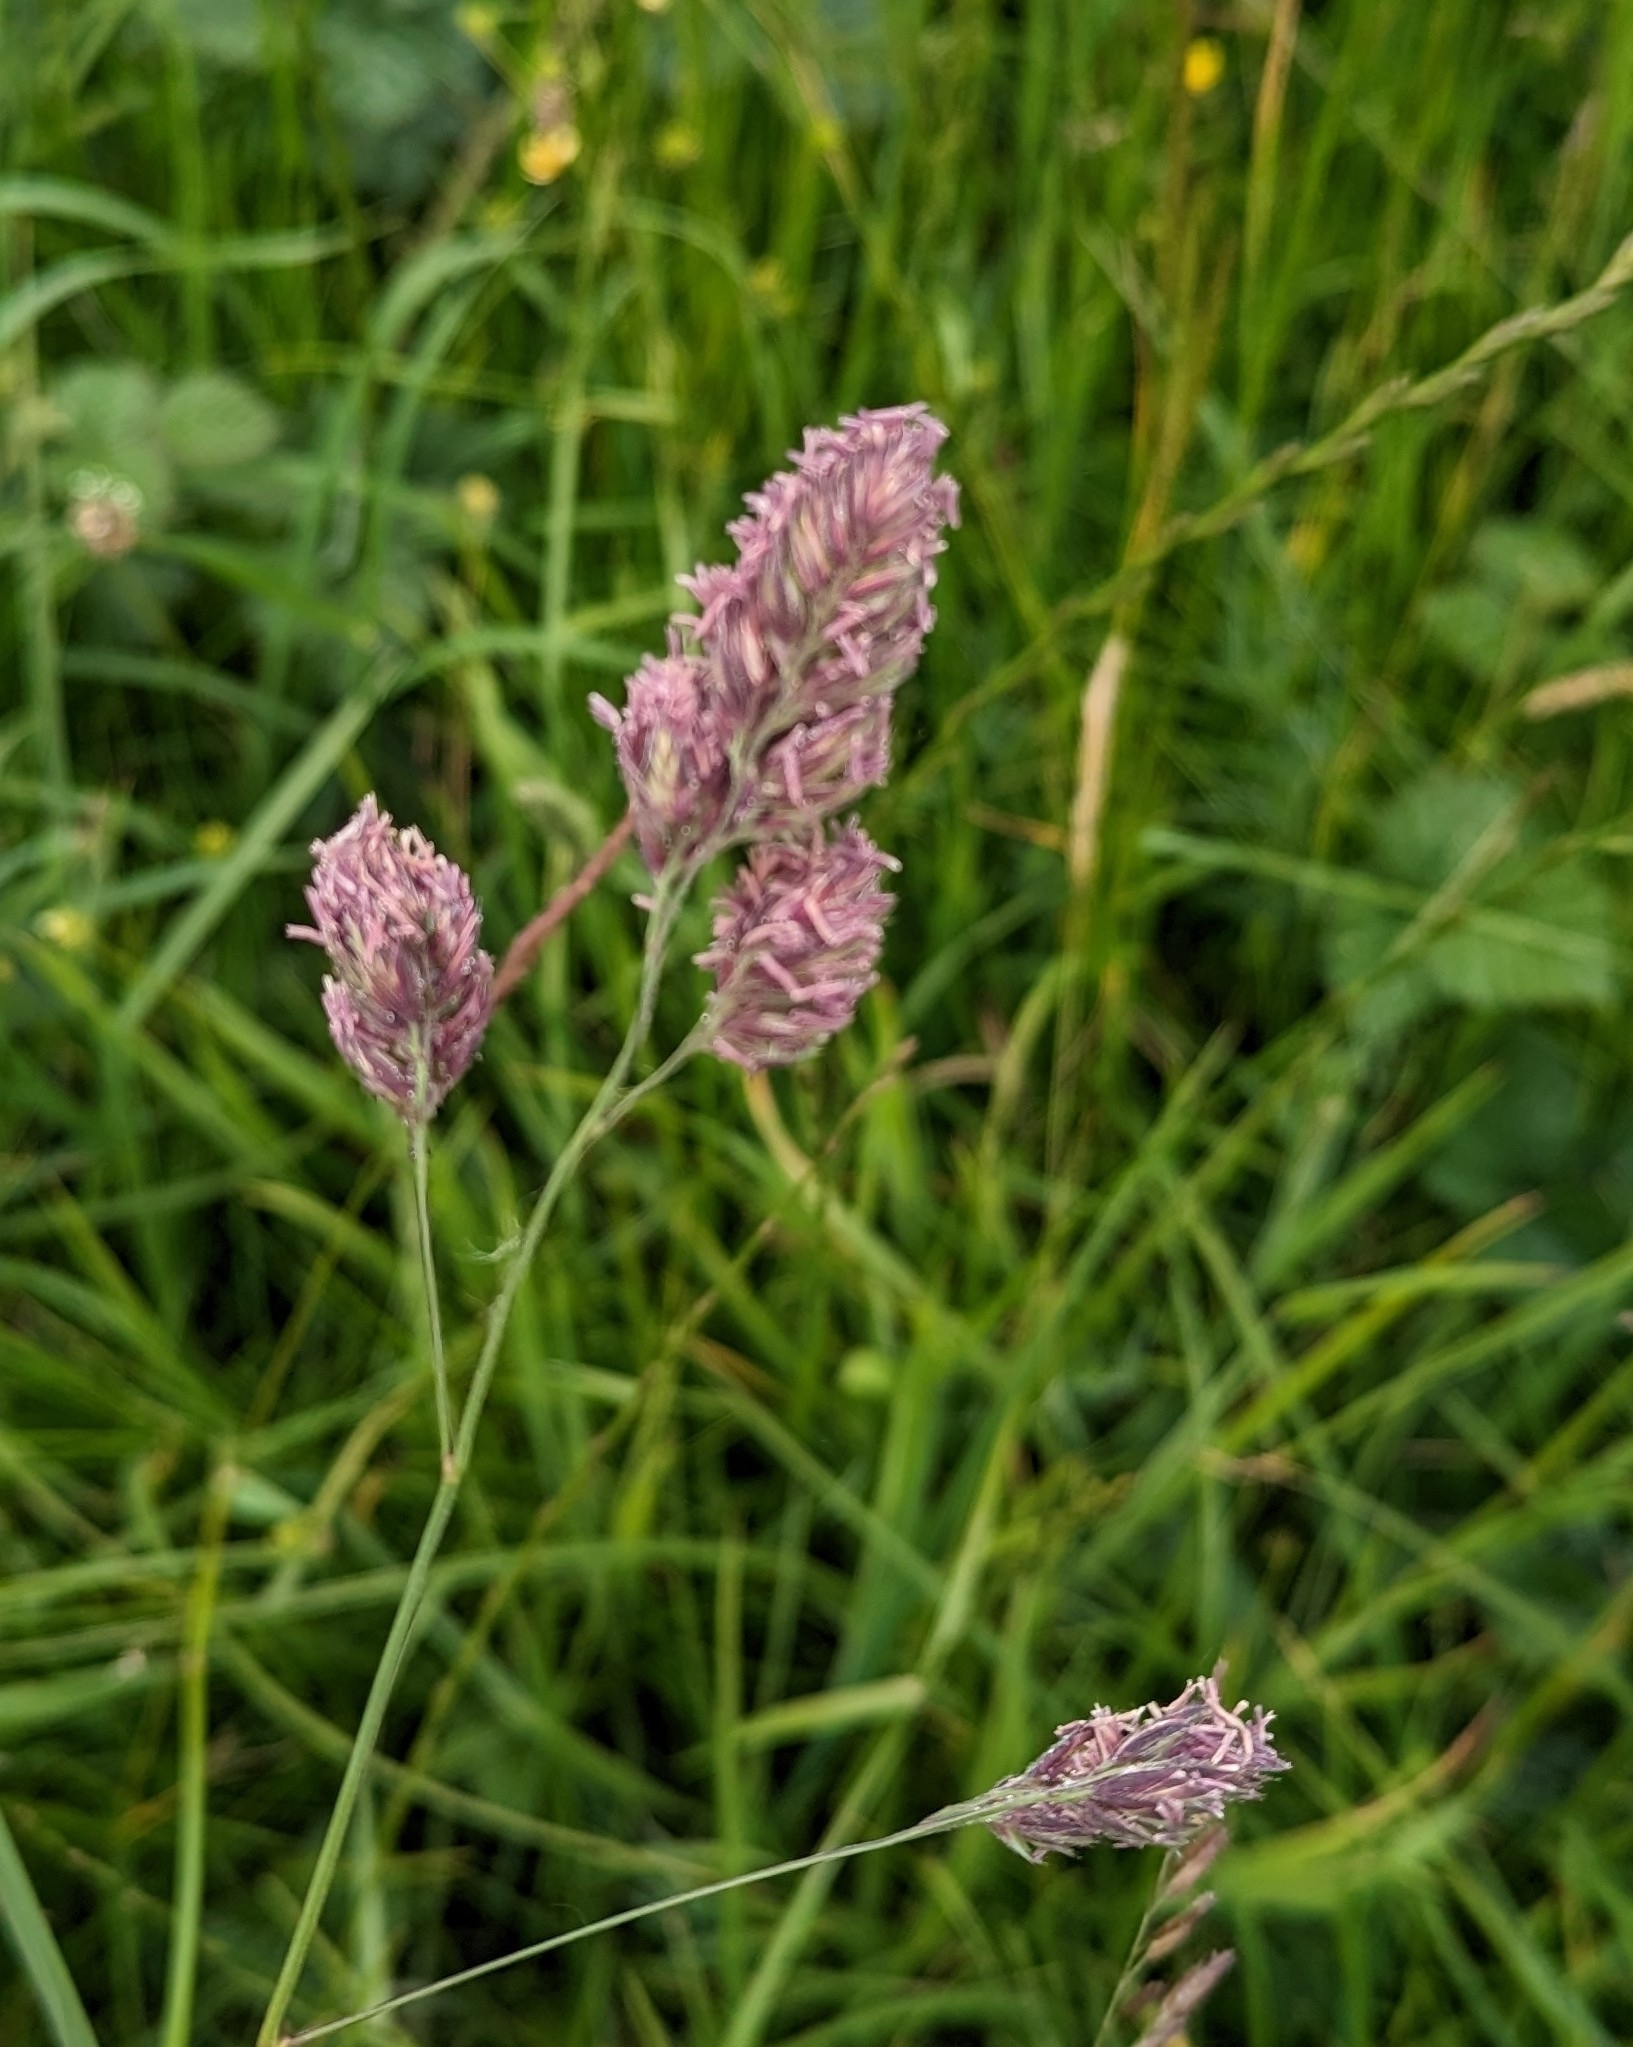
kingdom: Plantae
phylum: Tracheophyta
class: Liliopsida
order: Poales
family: Poaceae
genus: Dactylis
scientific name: Dactylis glomerata
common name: Orchardgrass
